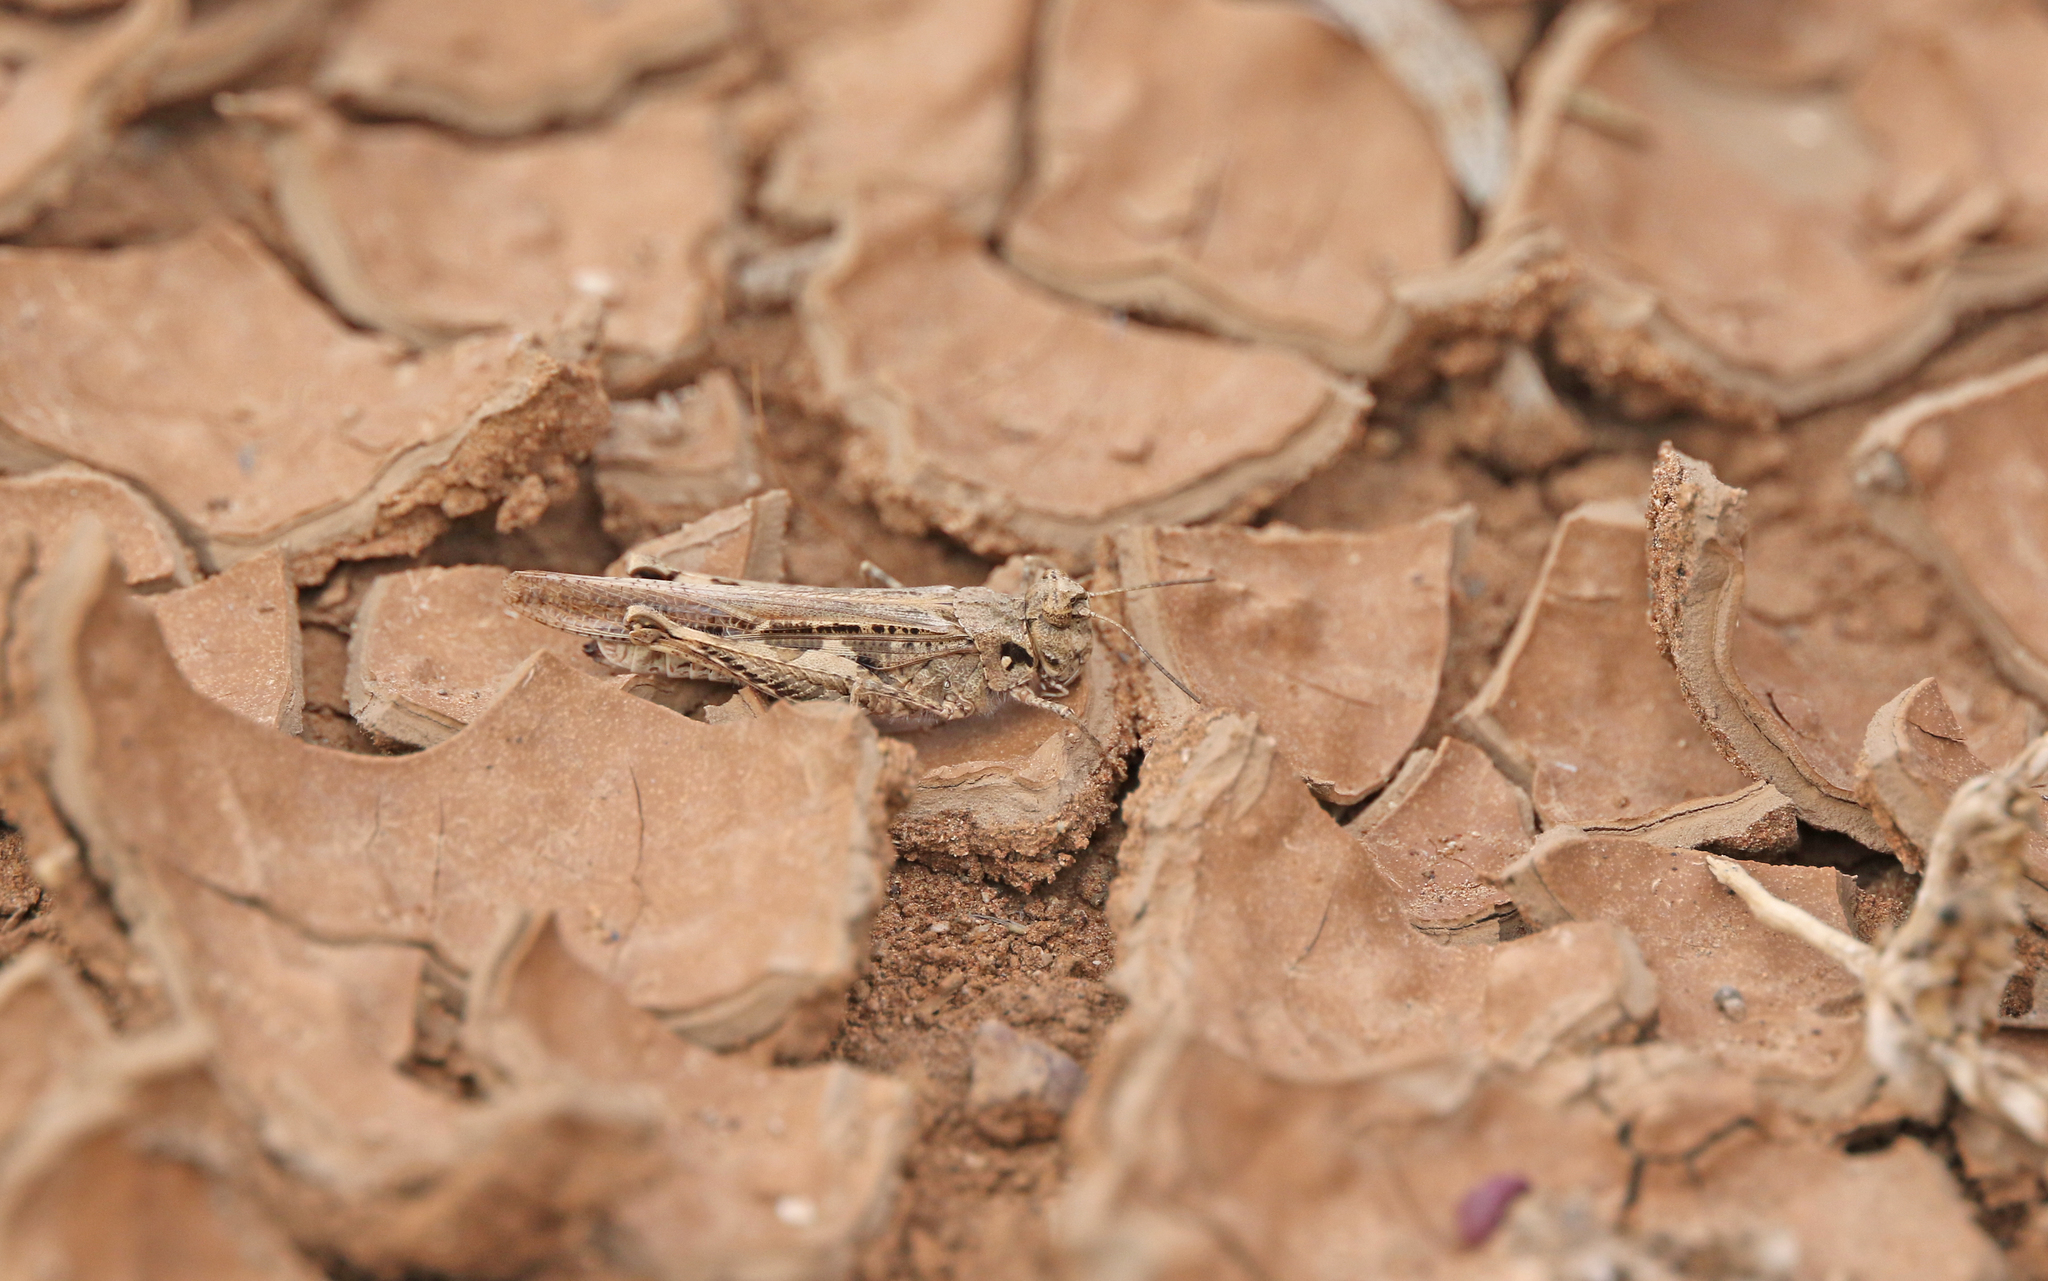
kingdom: Animalia
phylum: Arthropoda
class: Insecta
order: Orthoptera
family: Acrididae
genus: Acrotylus
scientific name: Acrotylus insubricus
